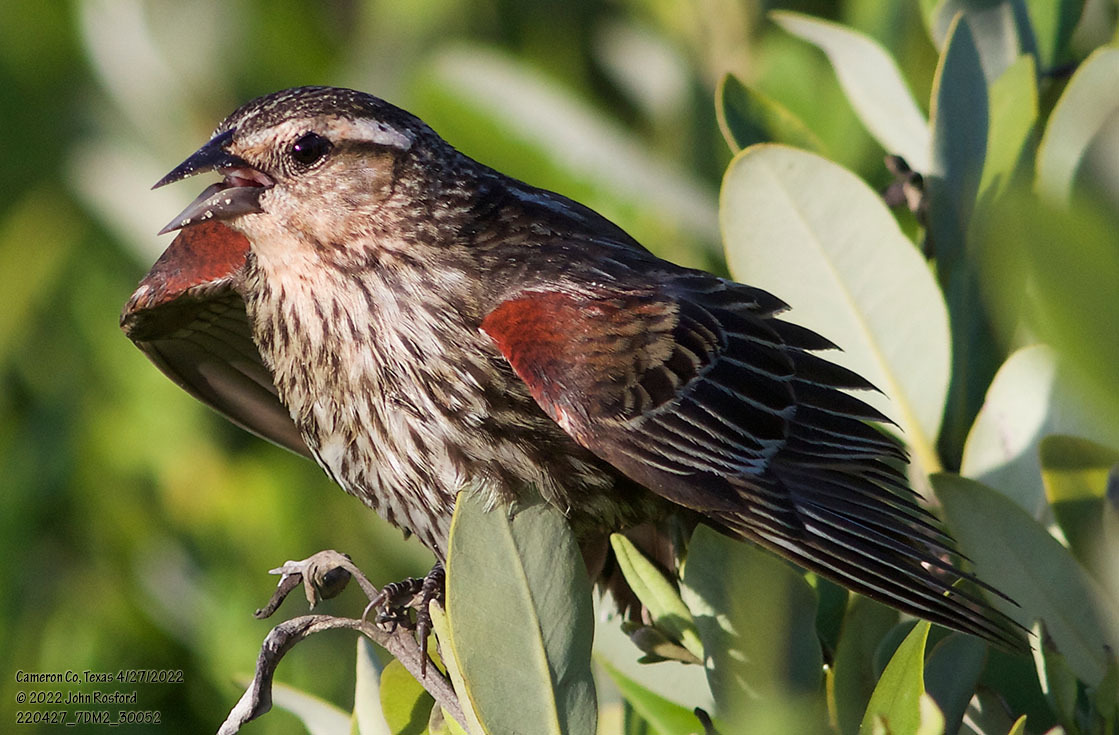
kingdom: Animalia
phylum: Chordata
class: Aves
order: Passeriformes
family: Icteridae
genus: Agelaius
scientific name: Agelaius phoeniceus
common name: Red-winged blackbird
